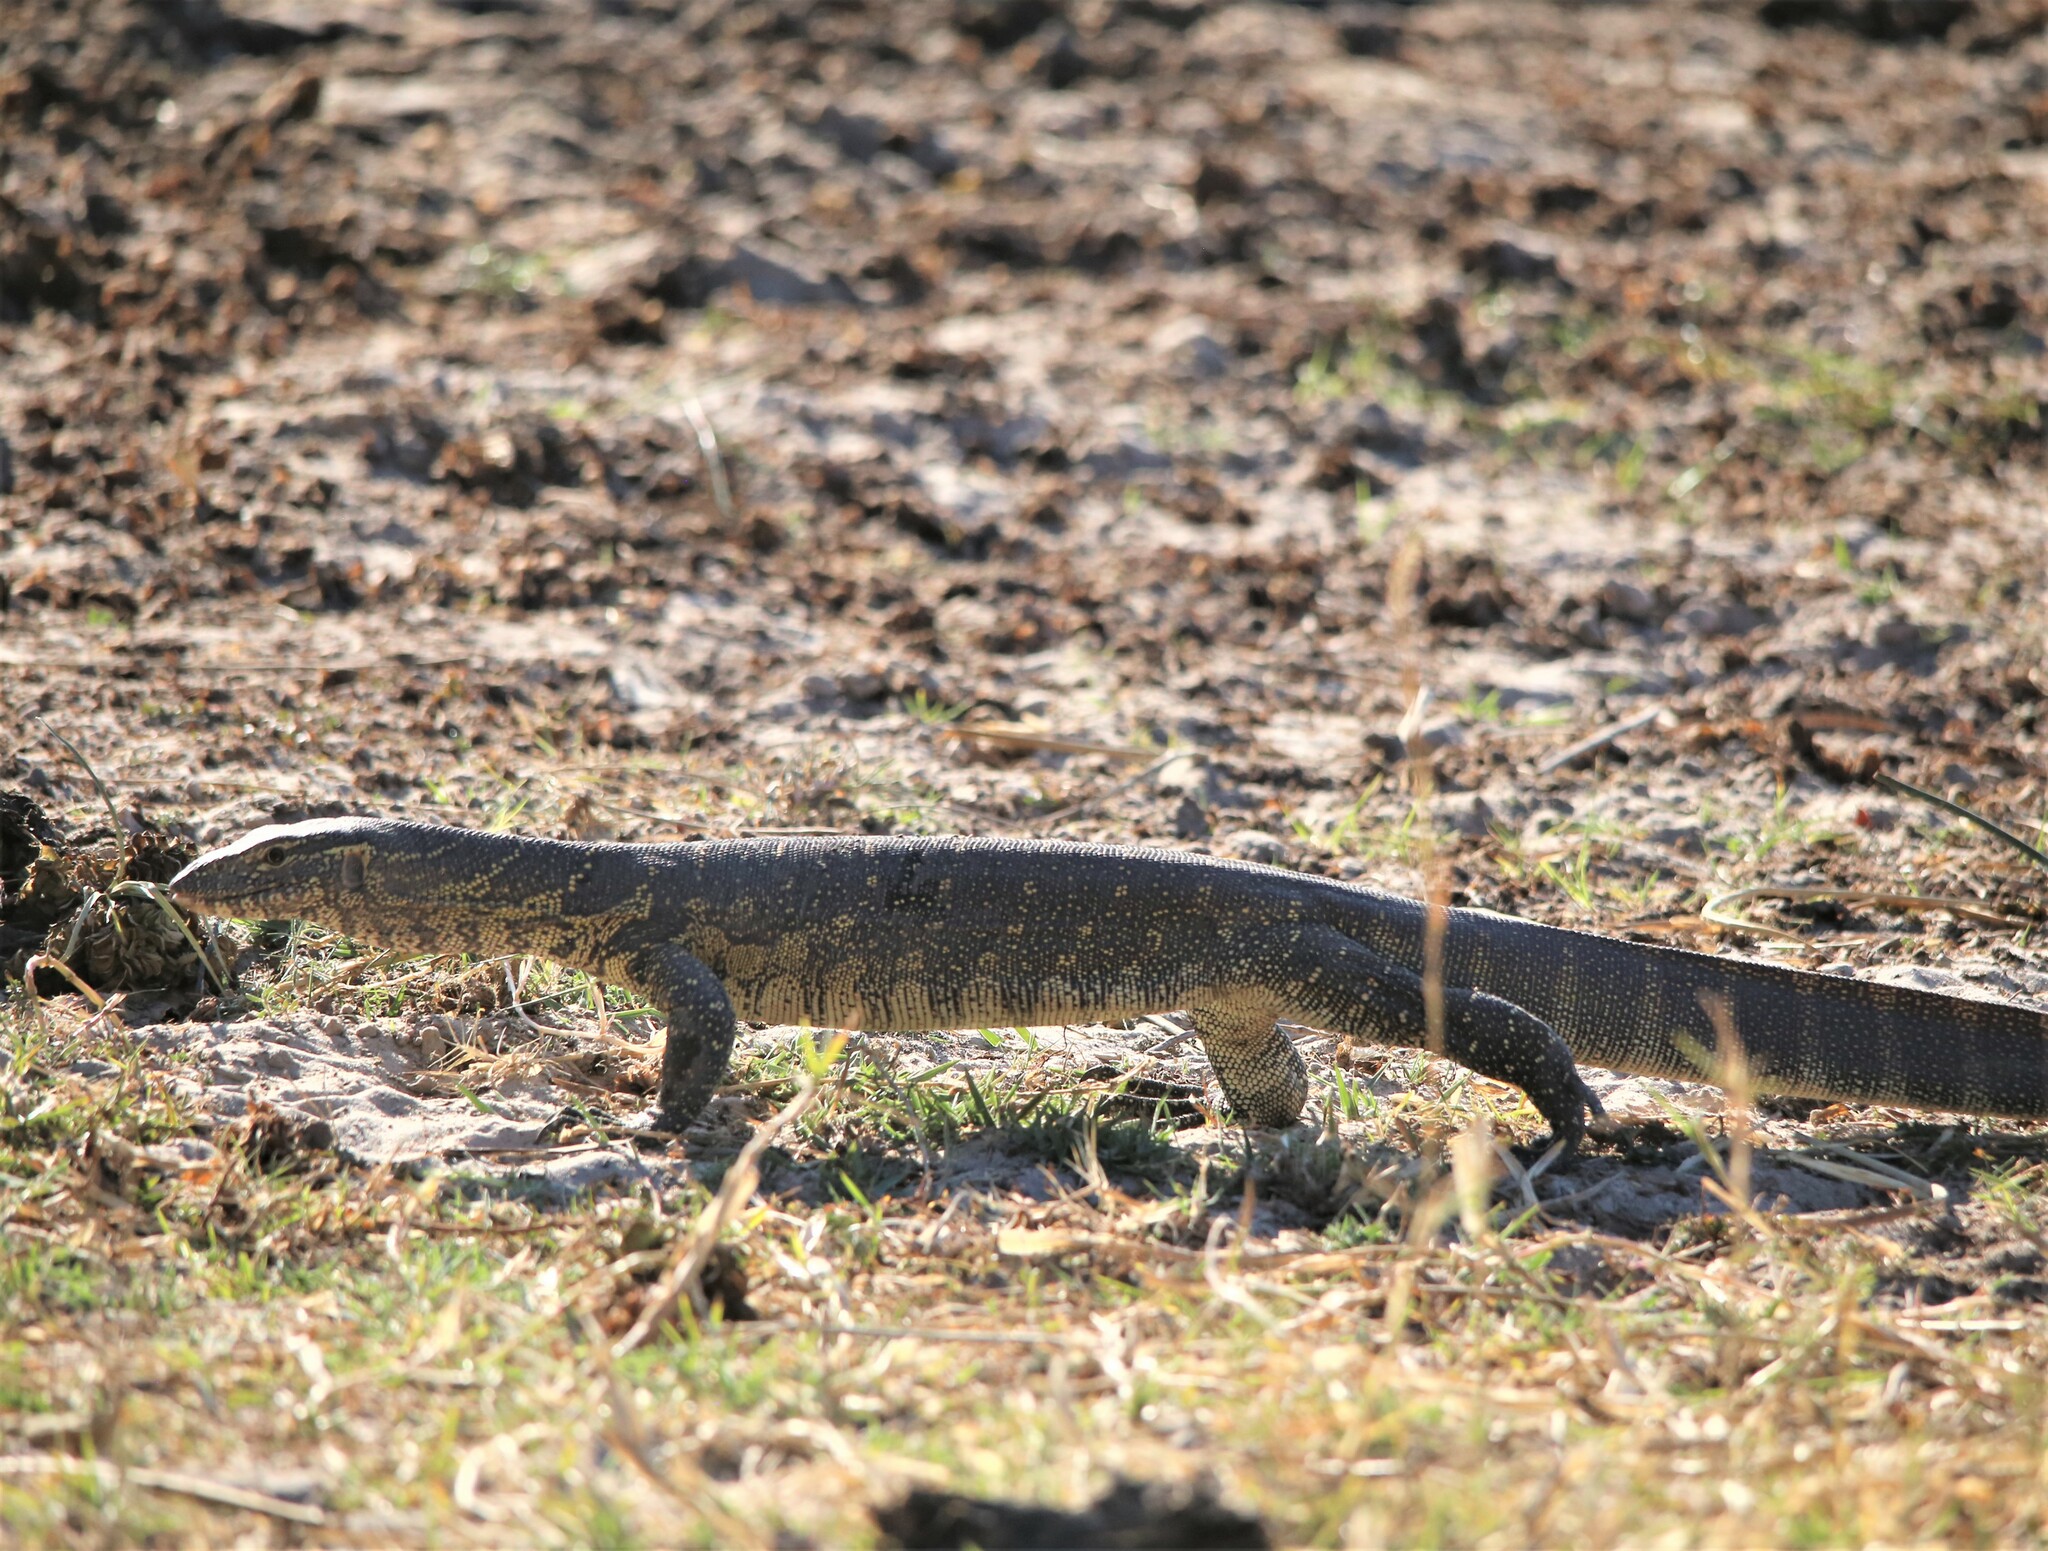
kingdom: Animalia
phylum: Chordata
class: Squamata
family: Varanidae
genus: Varanus
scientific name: Varanus niloticus
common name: Nile monitor
